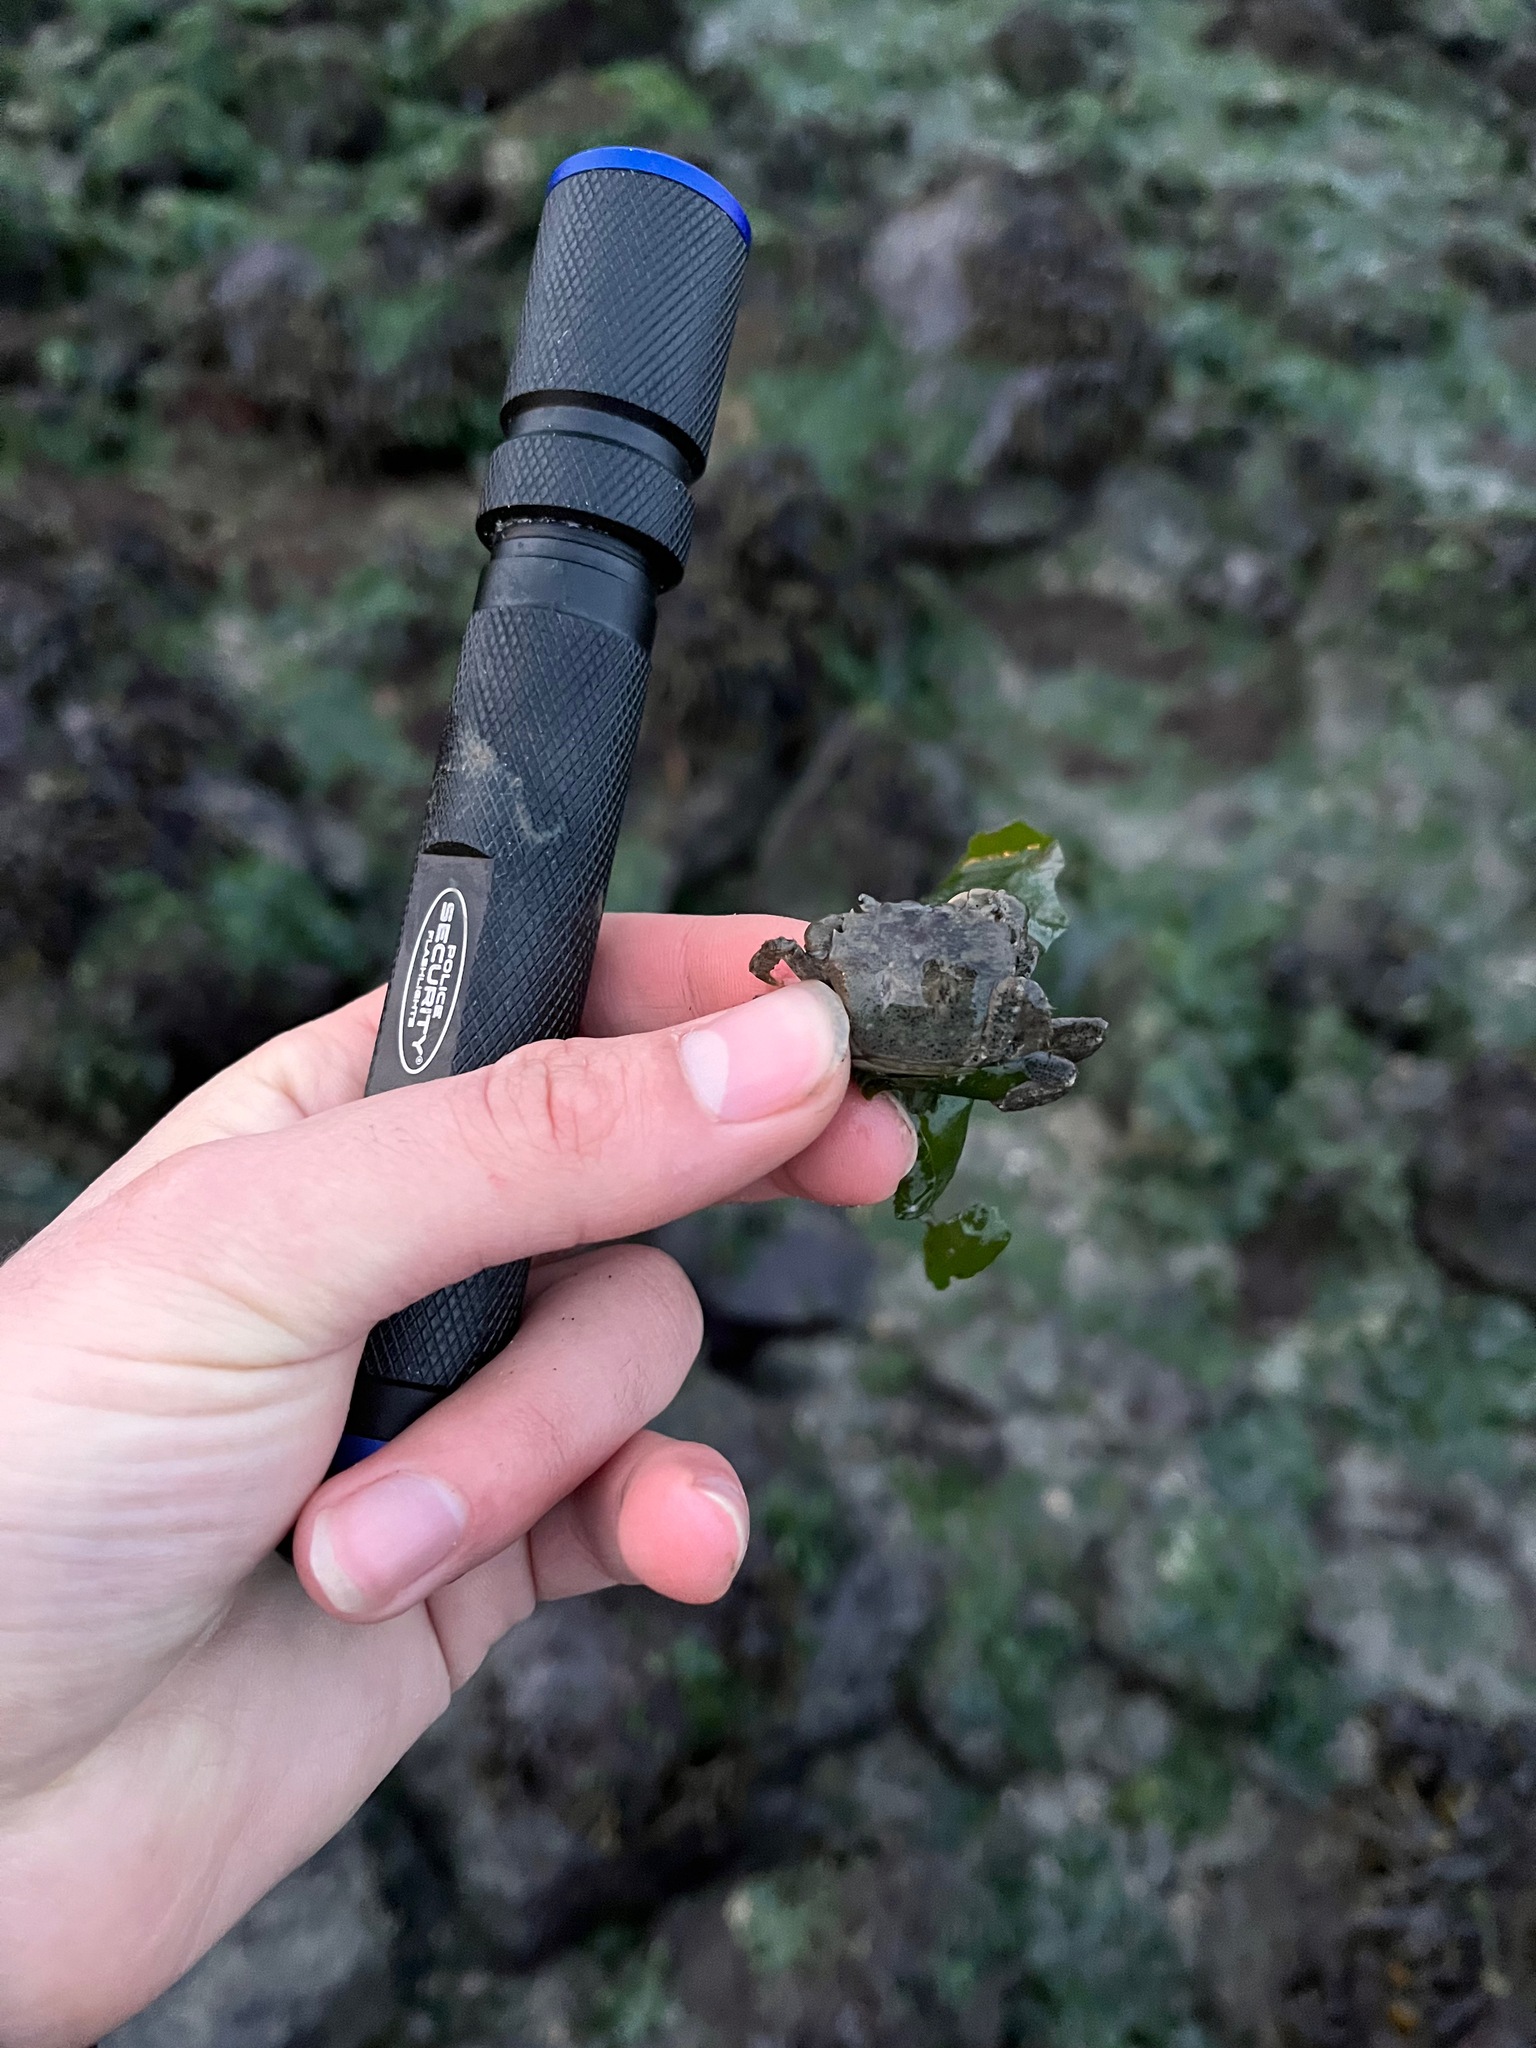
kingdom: Animalia
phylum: Arthropoda
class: Malacostraca
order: Decapoda
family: Varunidae
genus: Hemigrapsus
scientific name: Hemigrapsus oregonensis
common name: Yellow shore crab
